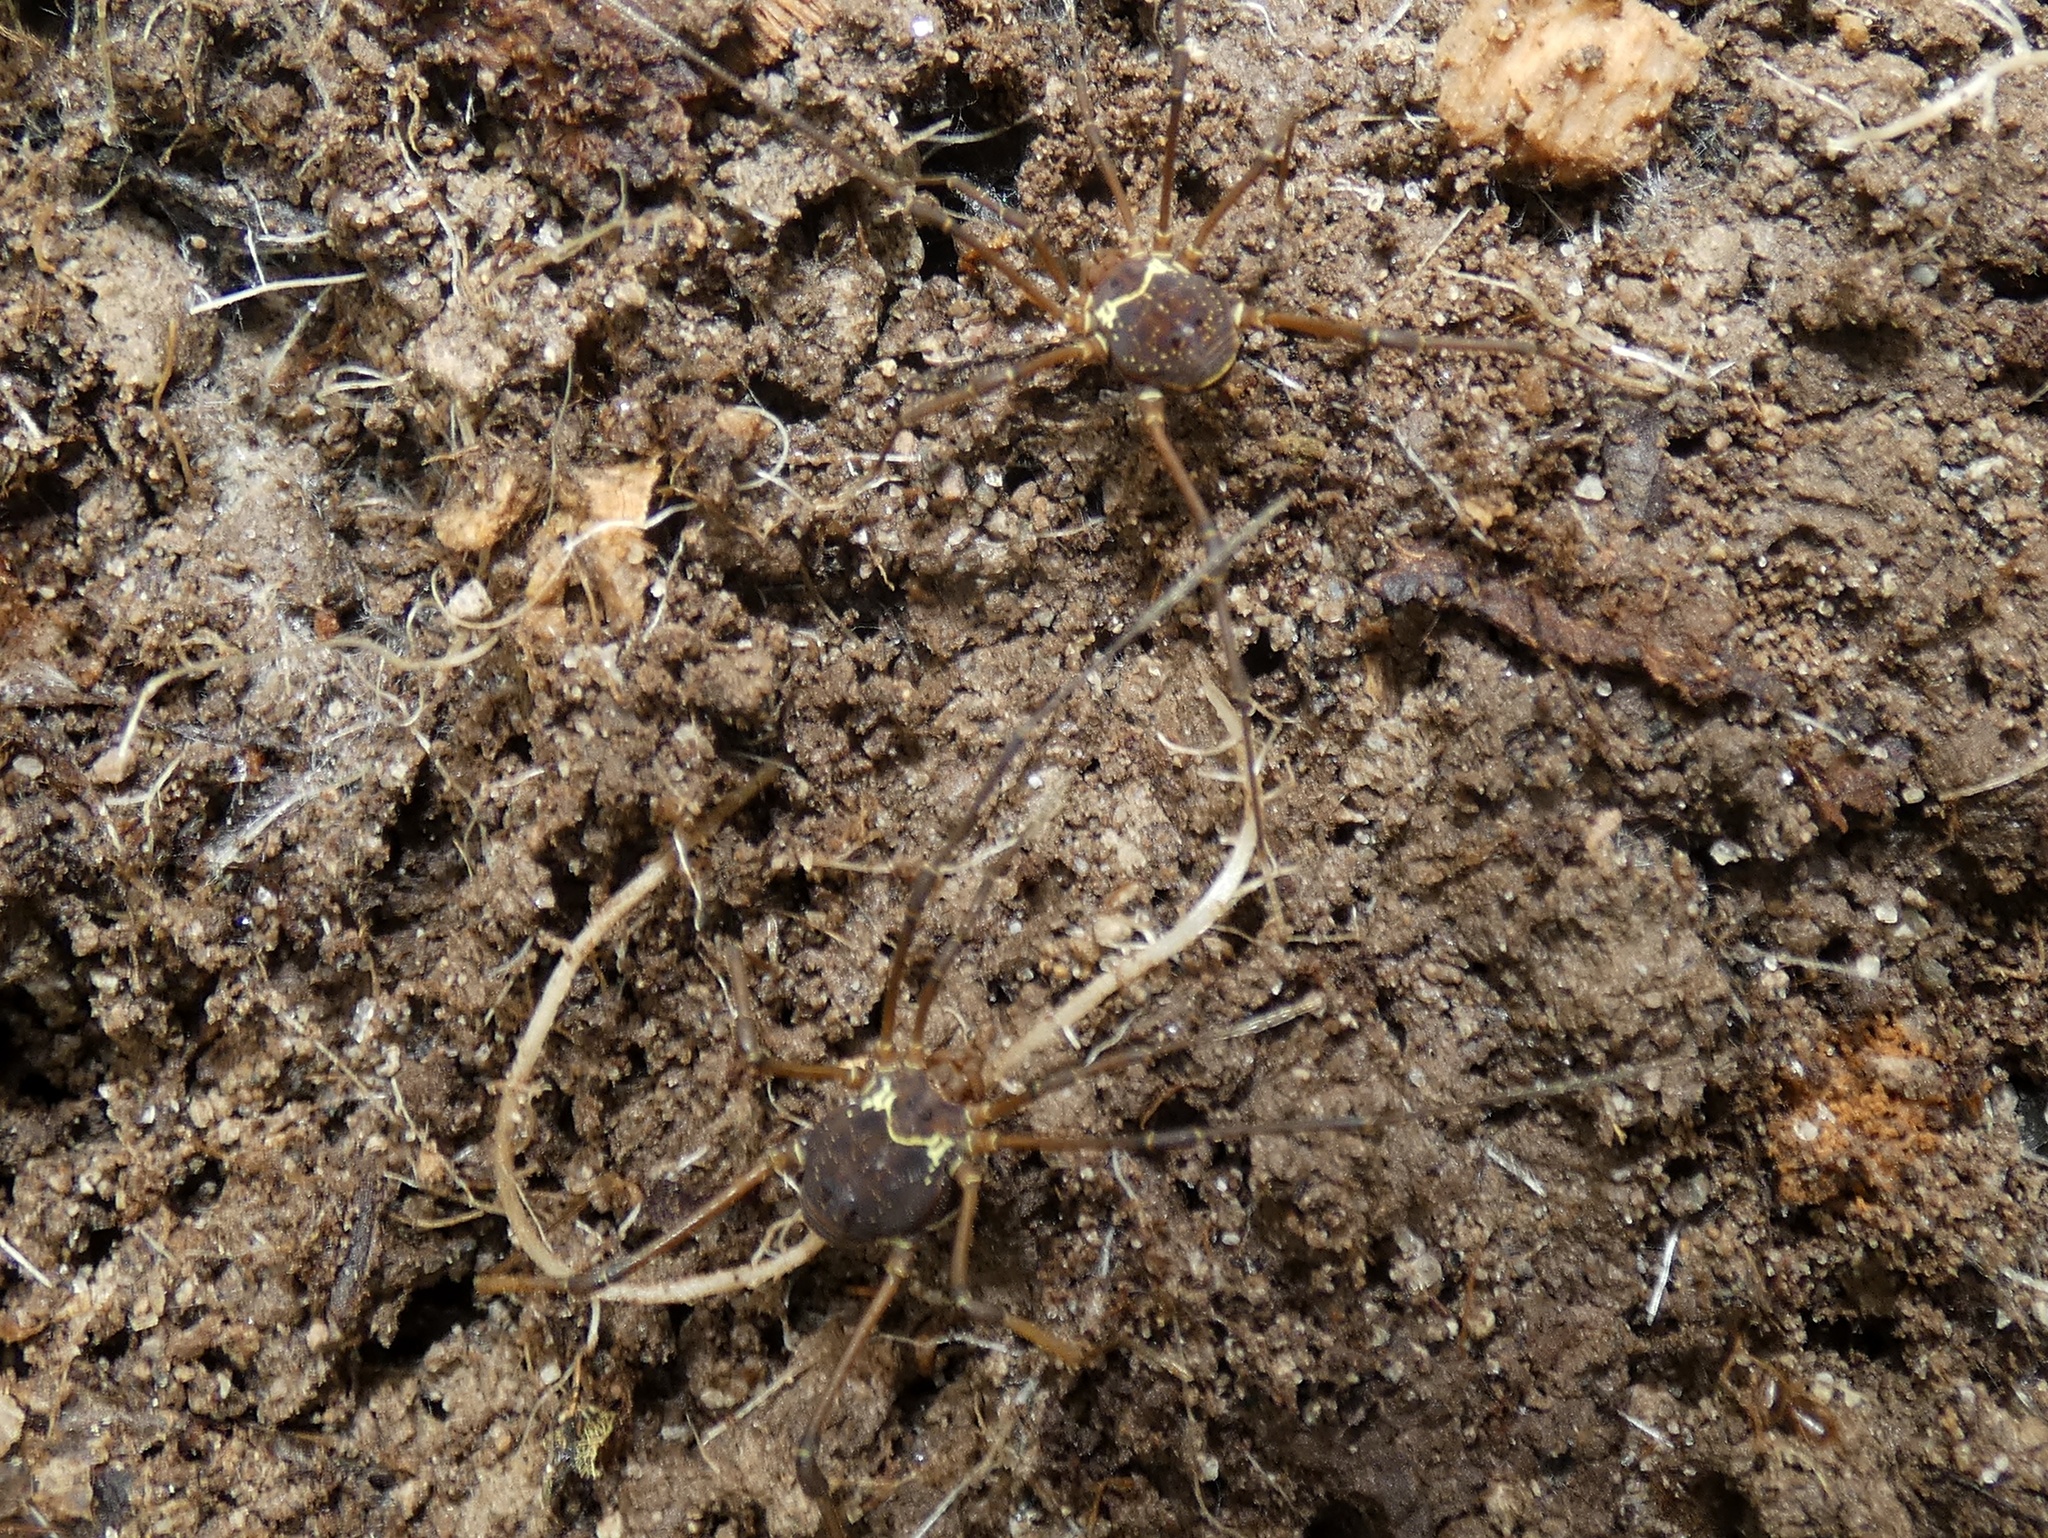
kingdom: Animalia
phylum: Arthropoda
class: Arachnida
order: Opiliones
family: Cosmetidae
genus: Cynorta
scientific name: Cynorta astora
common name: Harvestmen
